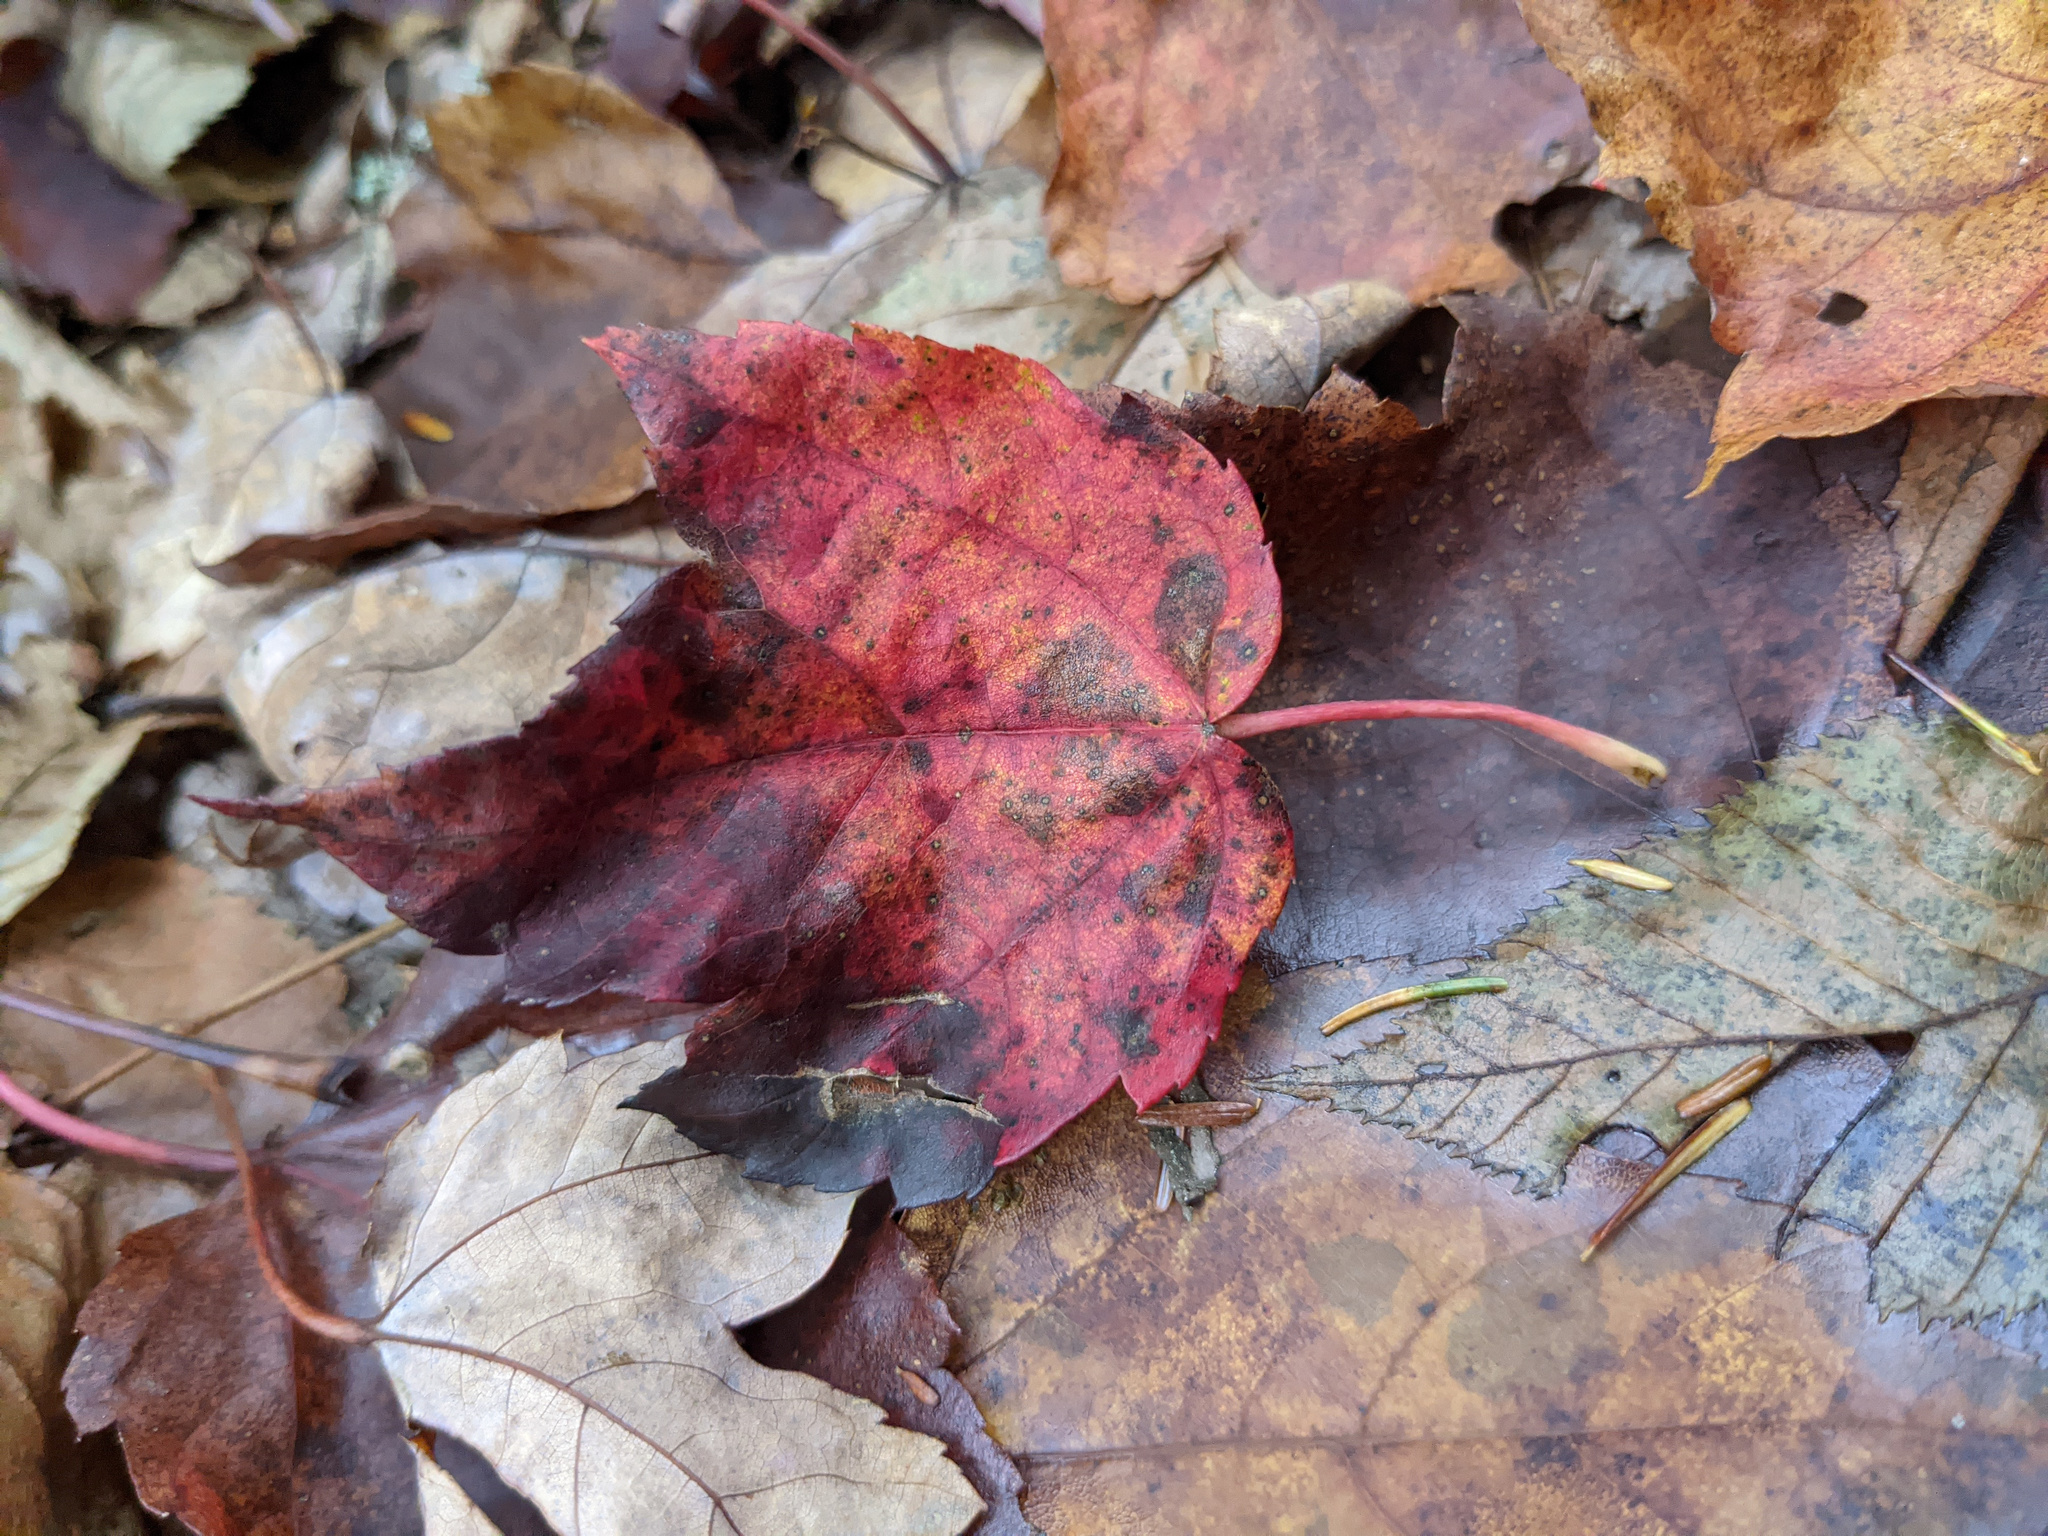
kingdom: Plantae
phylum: Tracheophyta
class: Magnoliopsida
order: Sapindales
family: Sapindaceae
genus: Acer
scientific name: Acer rubrum
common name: Red maple
